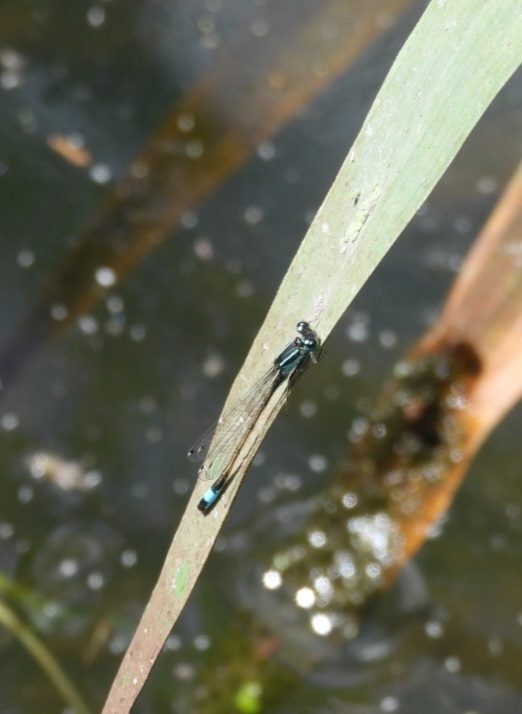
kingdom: Animalia
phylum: Arthropoda
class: Insecta
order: Odonata
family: Coenagrionidae
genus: Ischnura
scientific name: Ischnura elegans
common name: Blue-tailed damselfly
